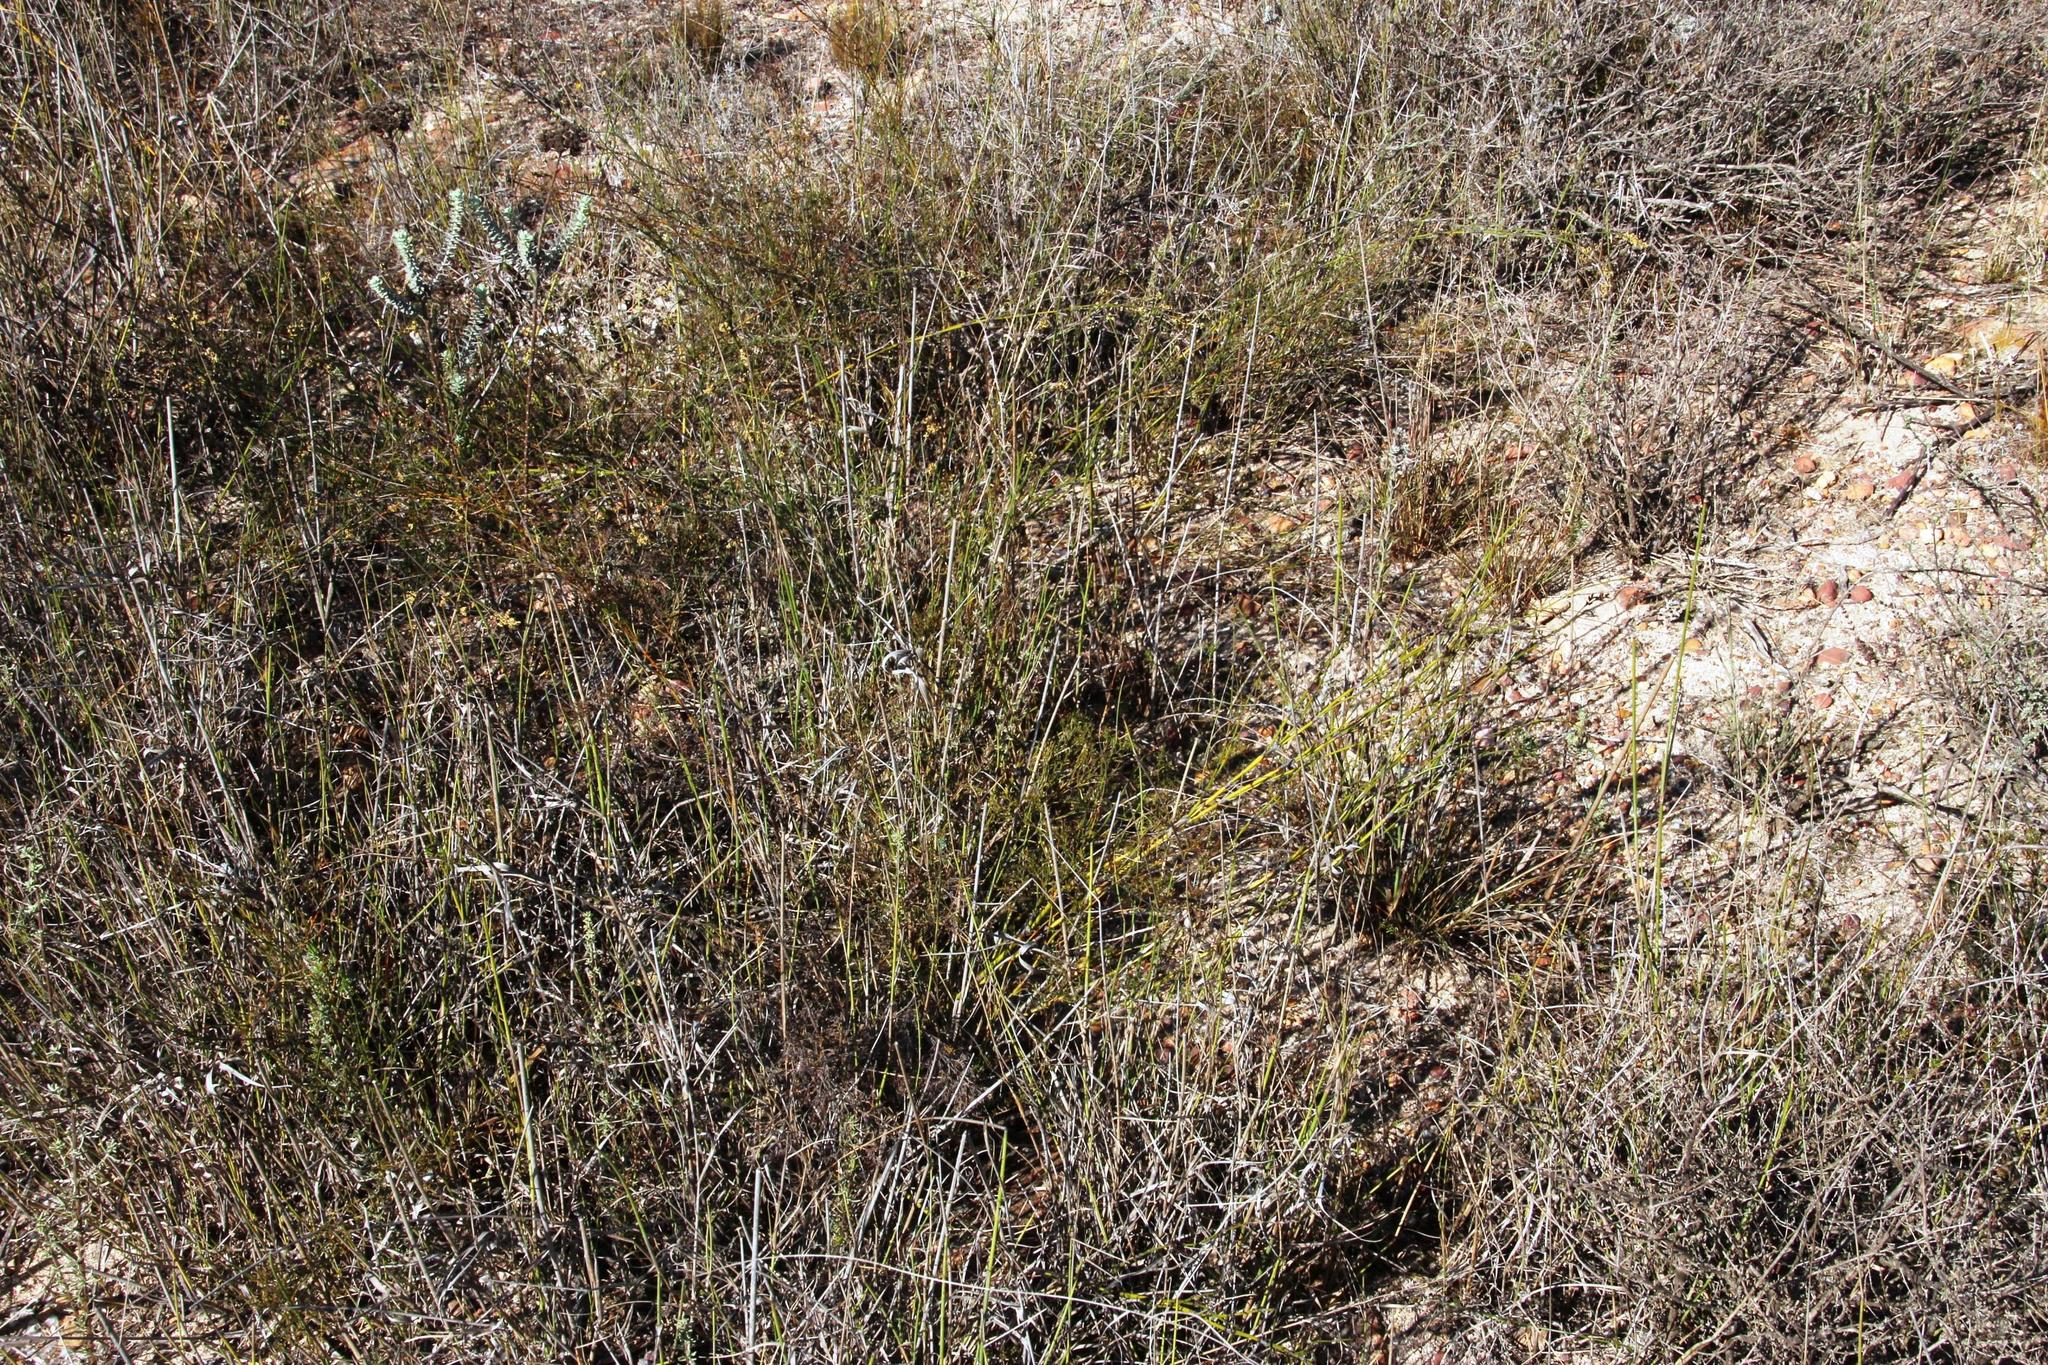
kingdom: Plantae
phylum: Tracheophyta
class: Liliopsida
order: Poales
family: Restionaceae
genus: Restio
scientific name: Restio capensis
